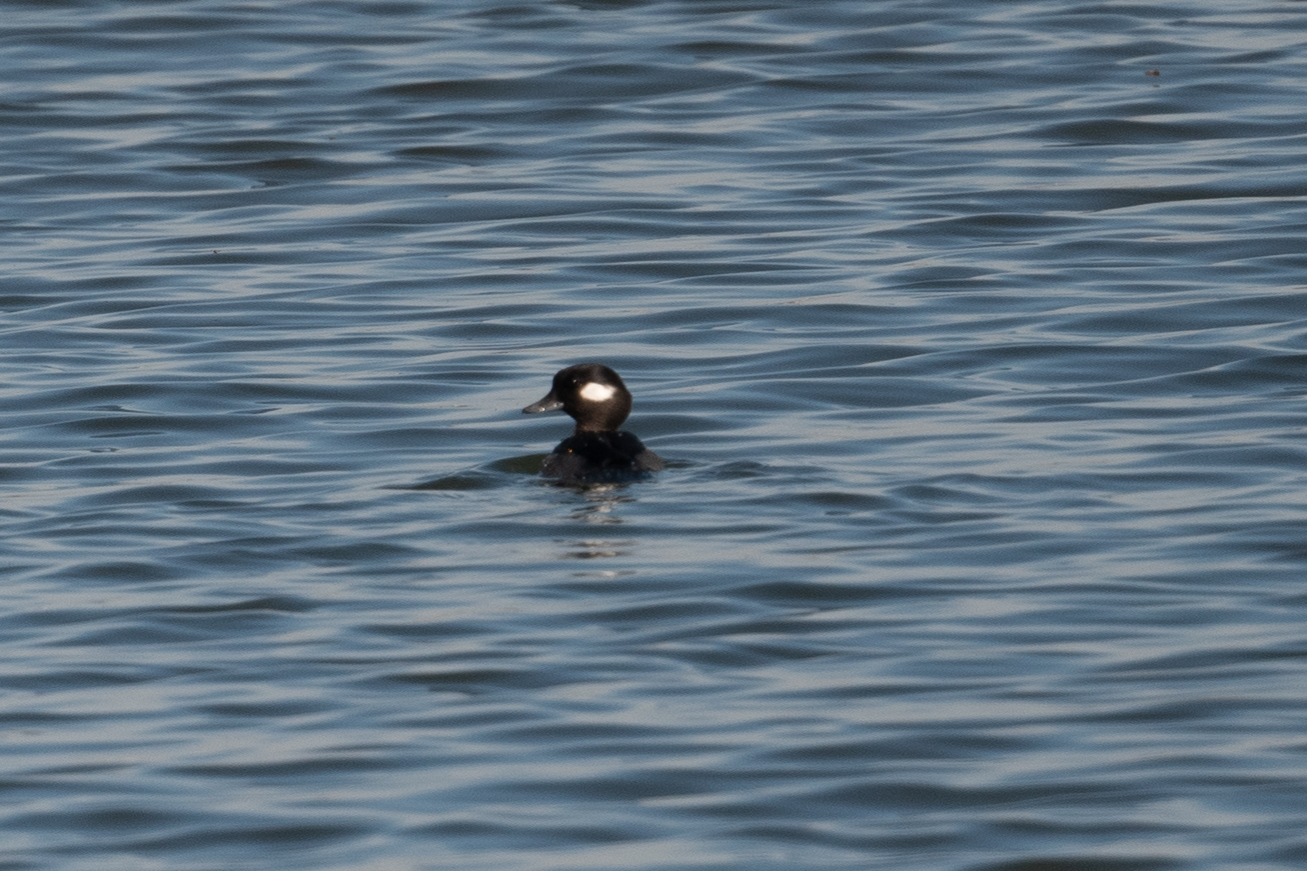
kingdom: Animalia
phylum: Chordata
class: Aves
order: Anseriformes
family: Anatidae
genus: Bucephala
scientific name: Bucephala albeola
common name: Bufflehead
